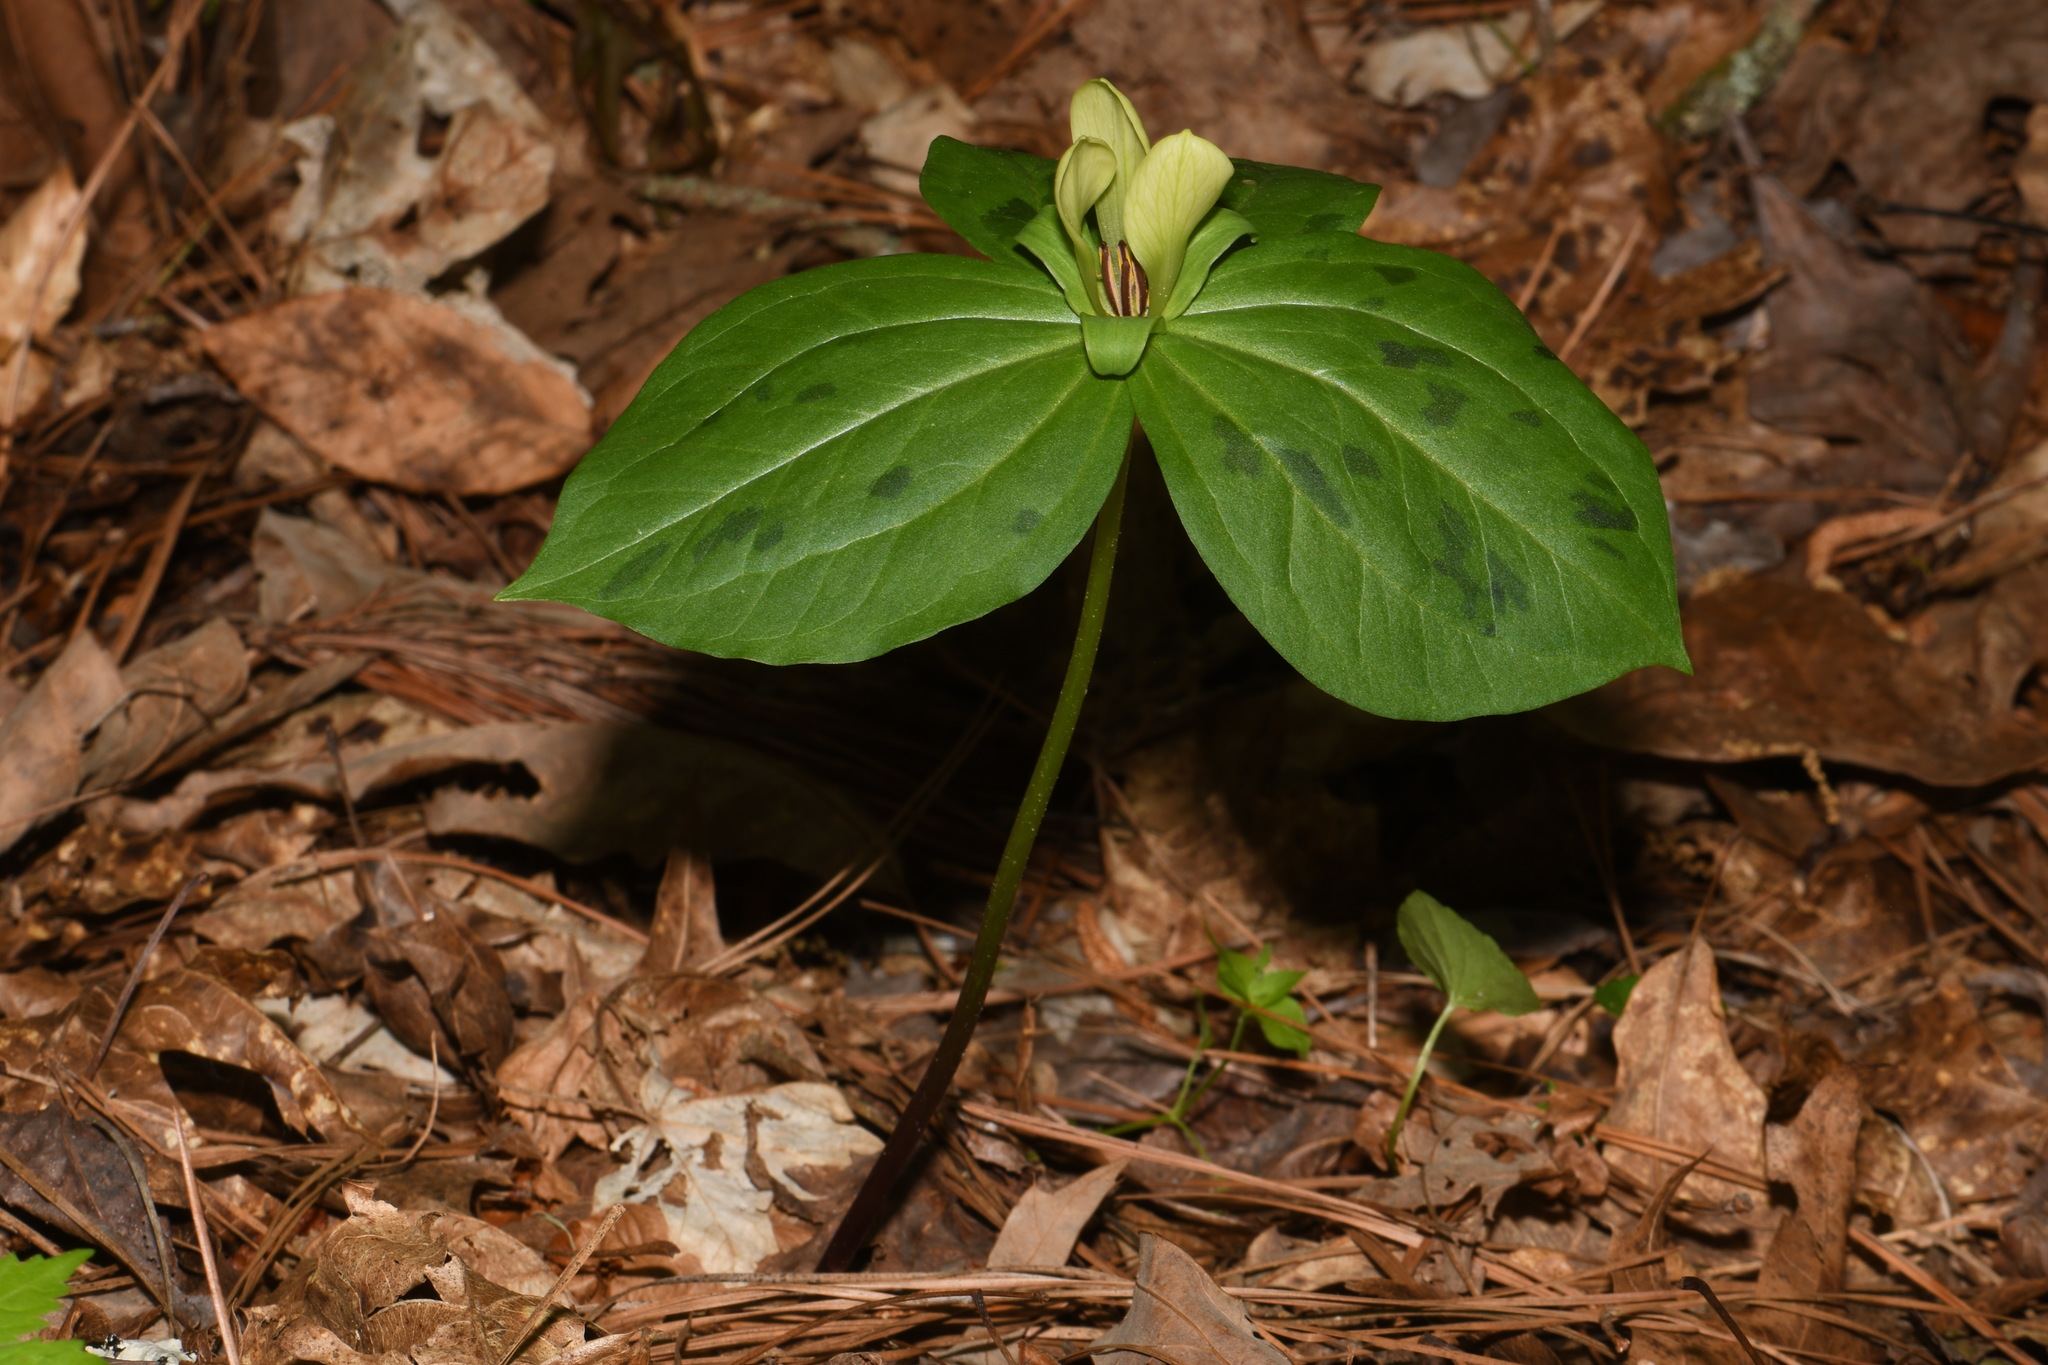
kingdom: Plantae
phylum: Tracheophyta
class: Liliopsida
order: Liliales
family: Melanthiaceae
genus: Trillium
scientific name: Trillium discolor
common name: Faded trillium
